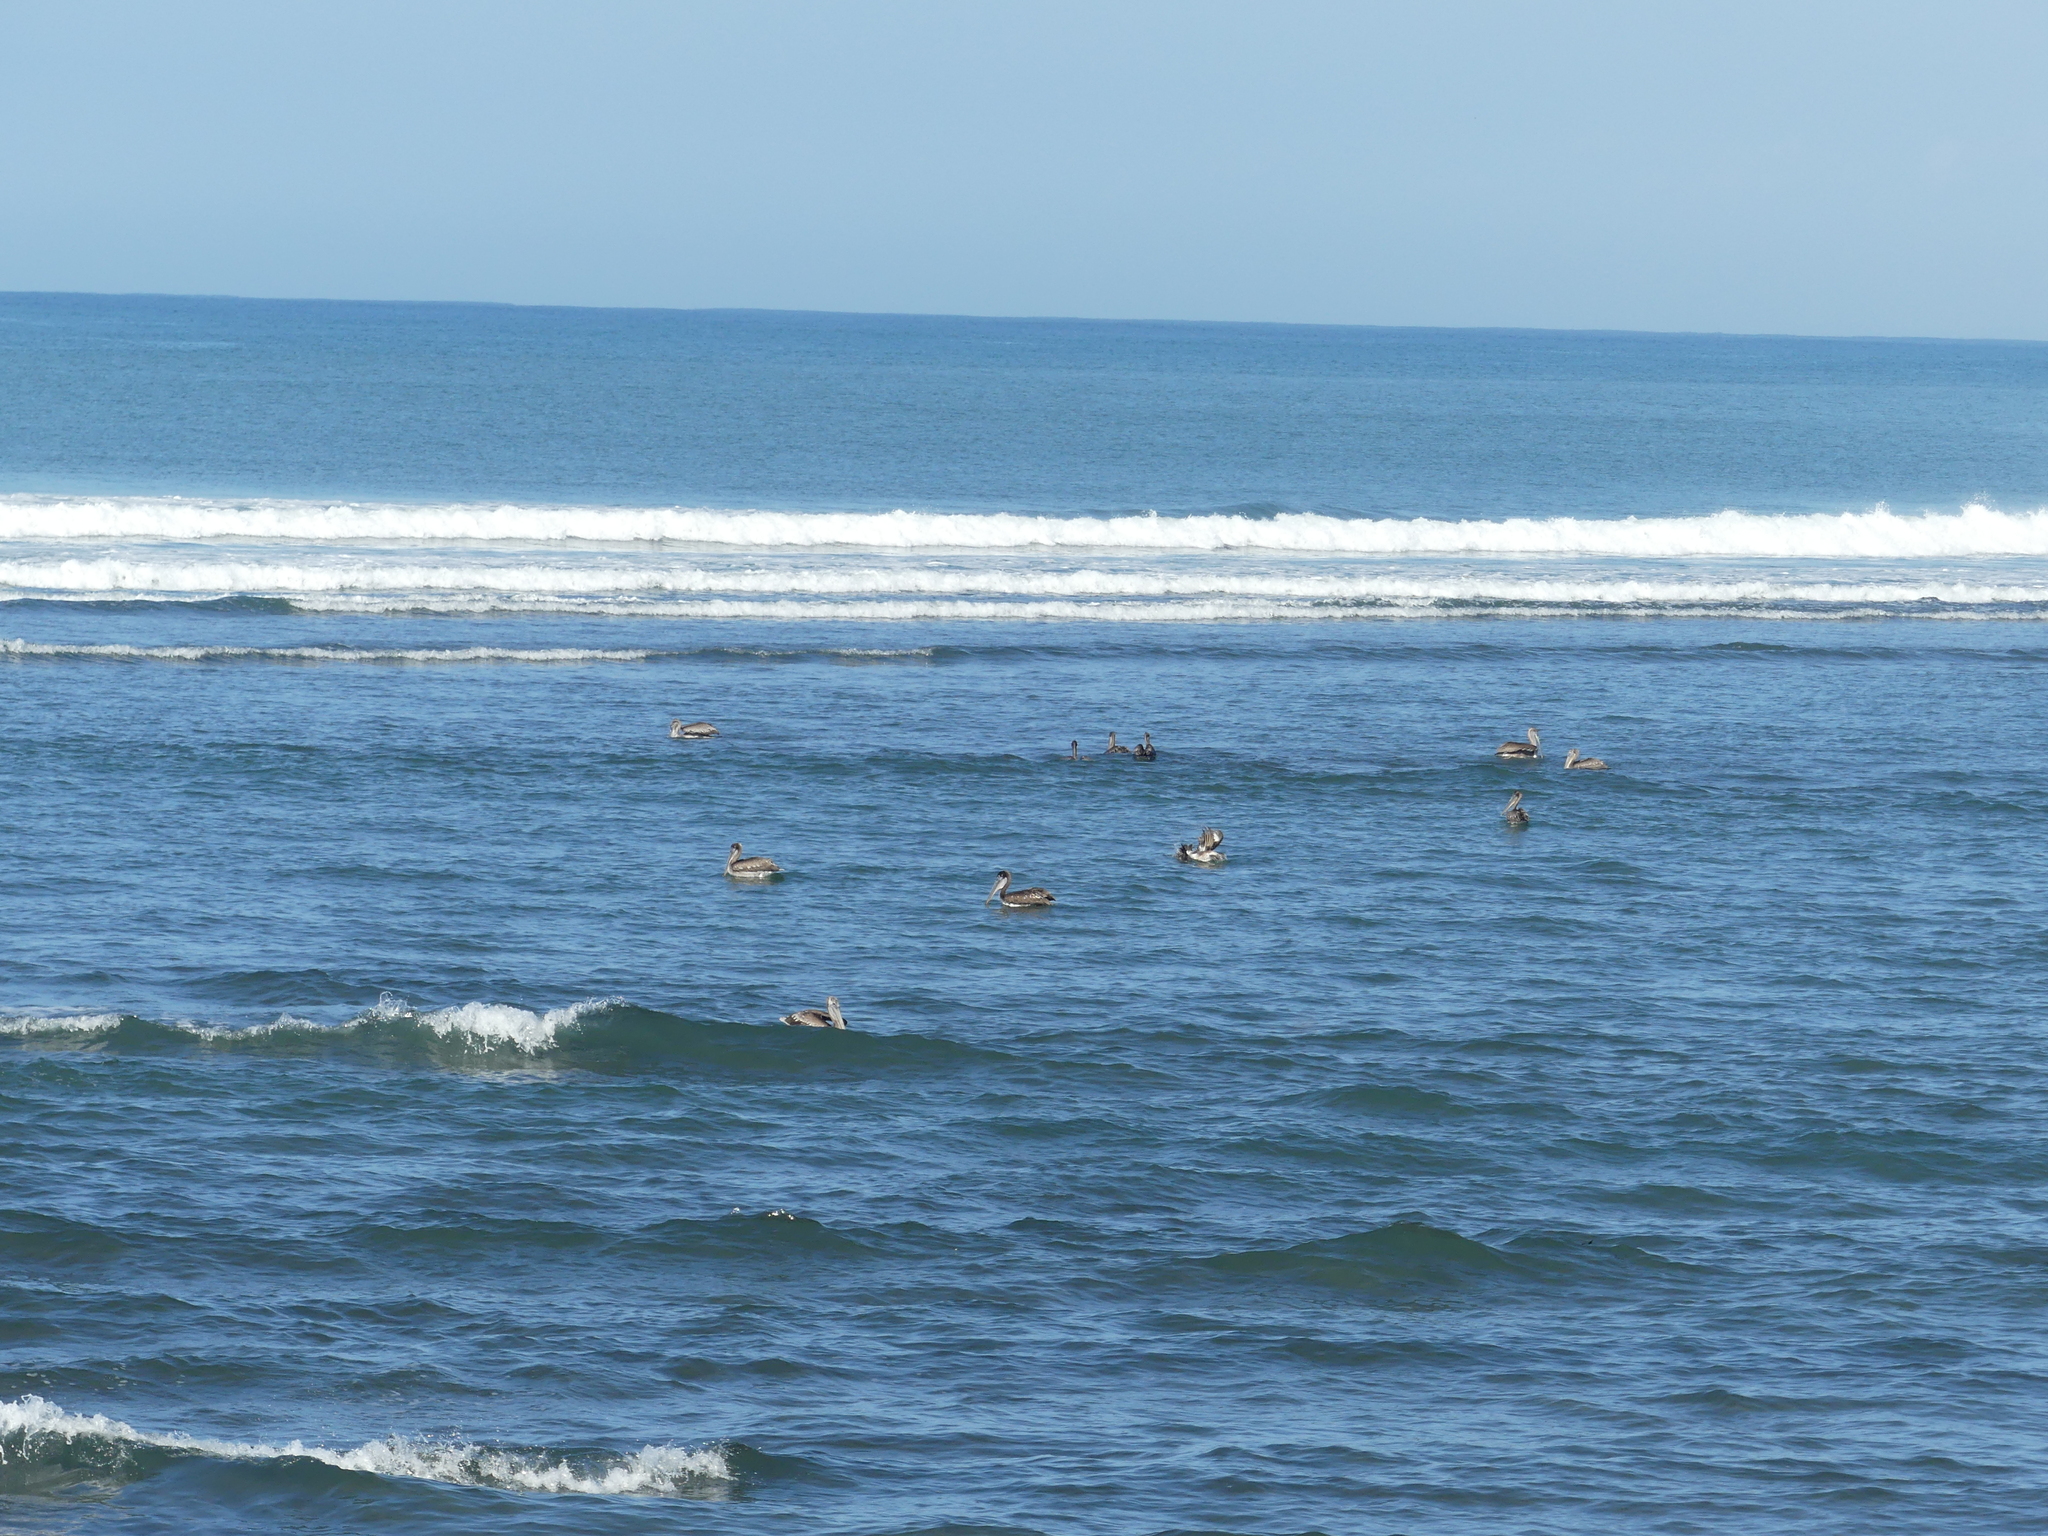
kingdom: Animalia
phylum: Chordata
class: Aves
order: Pelecaniformes
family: Pelecanidae
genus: Pelecanus
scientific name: Pelecanus occidentalis
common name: Brown pelican
